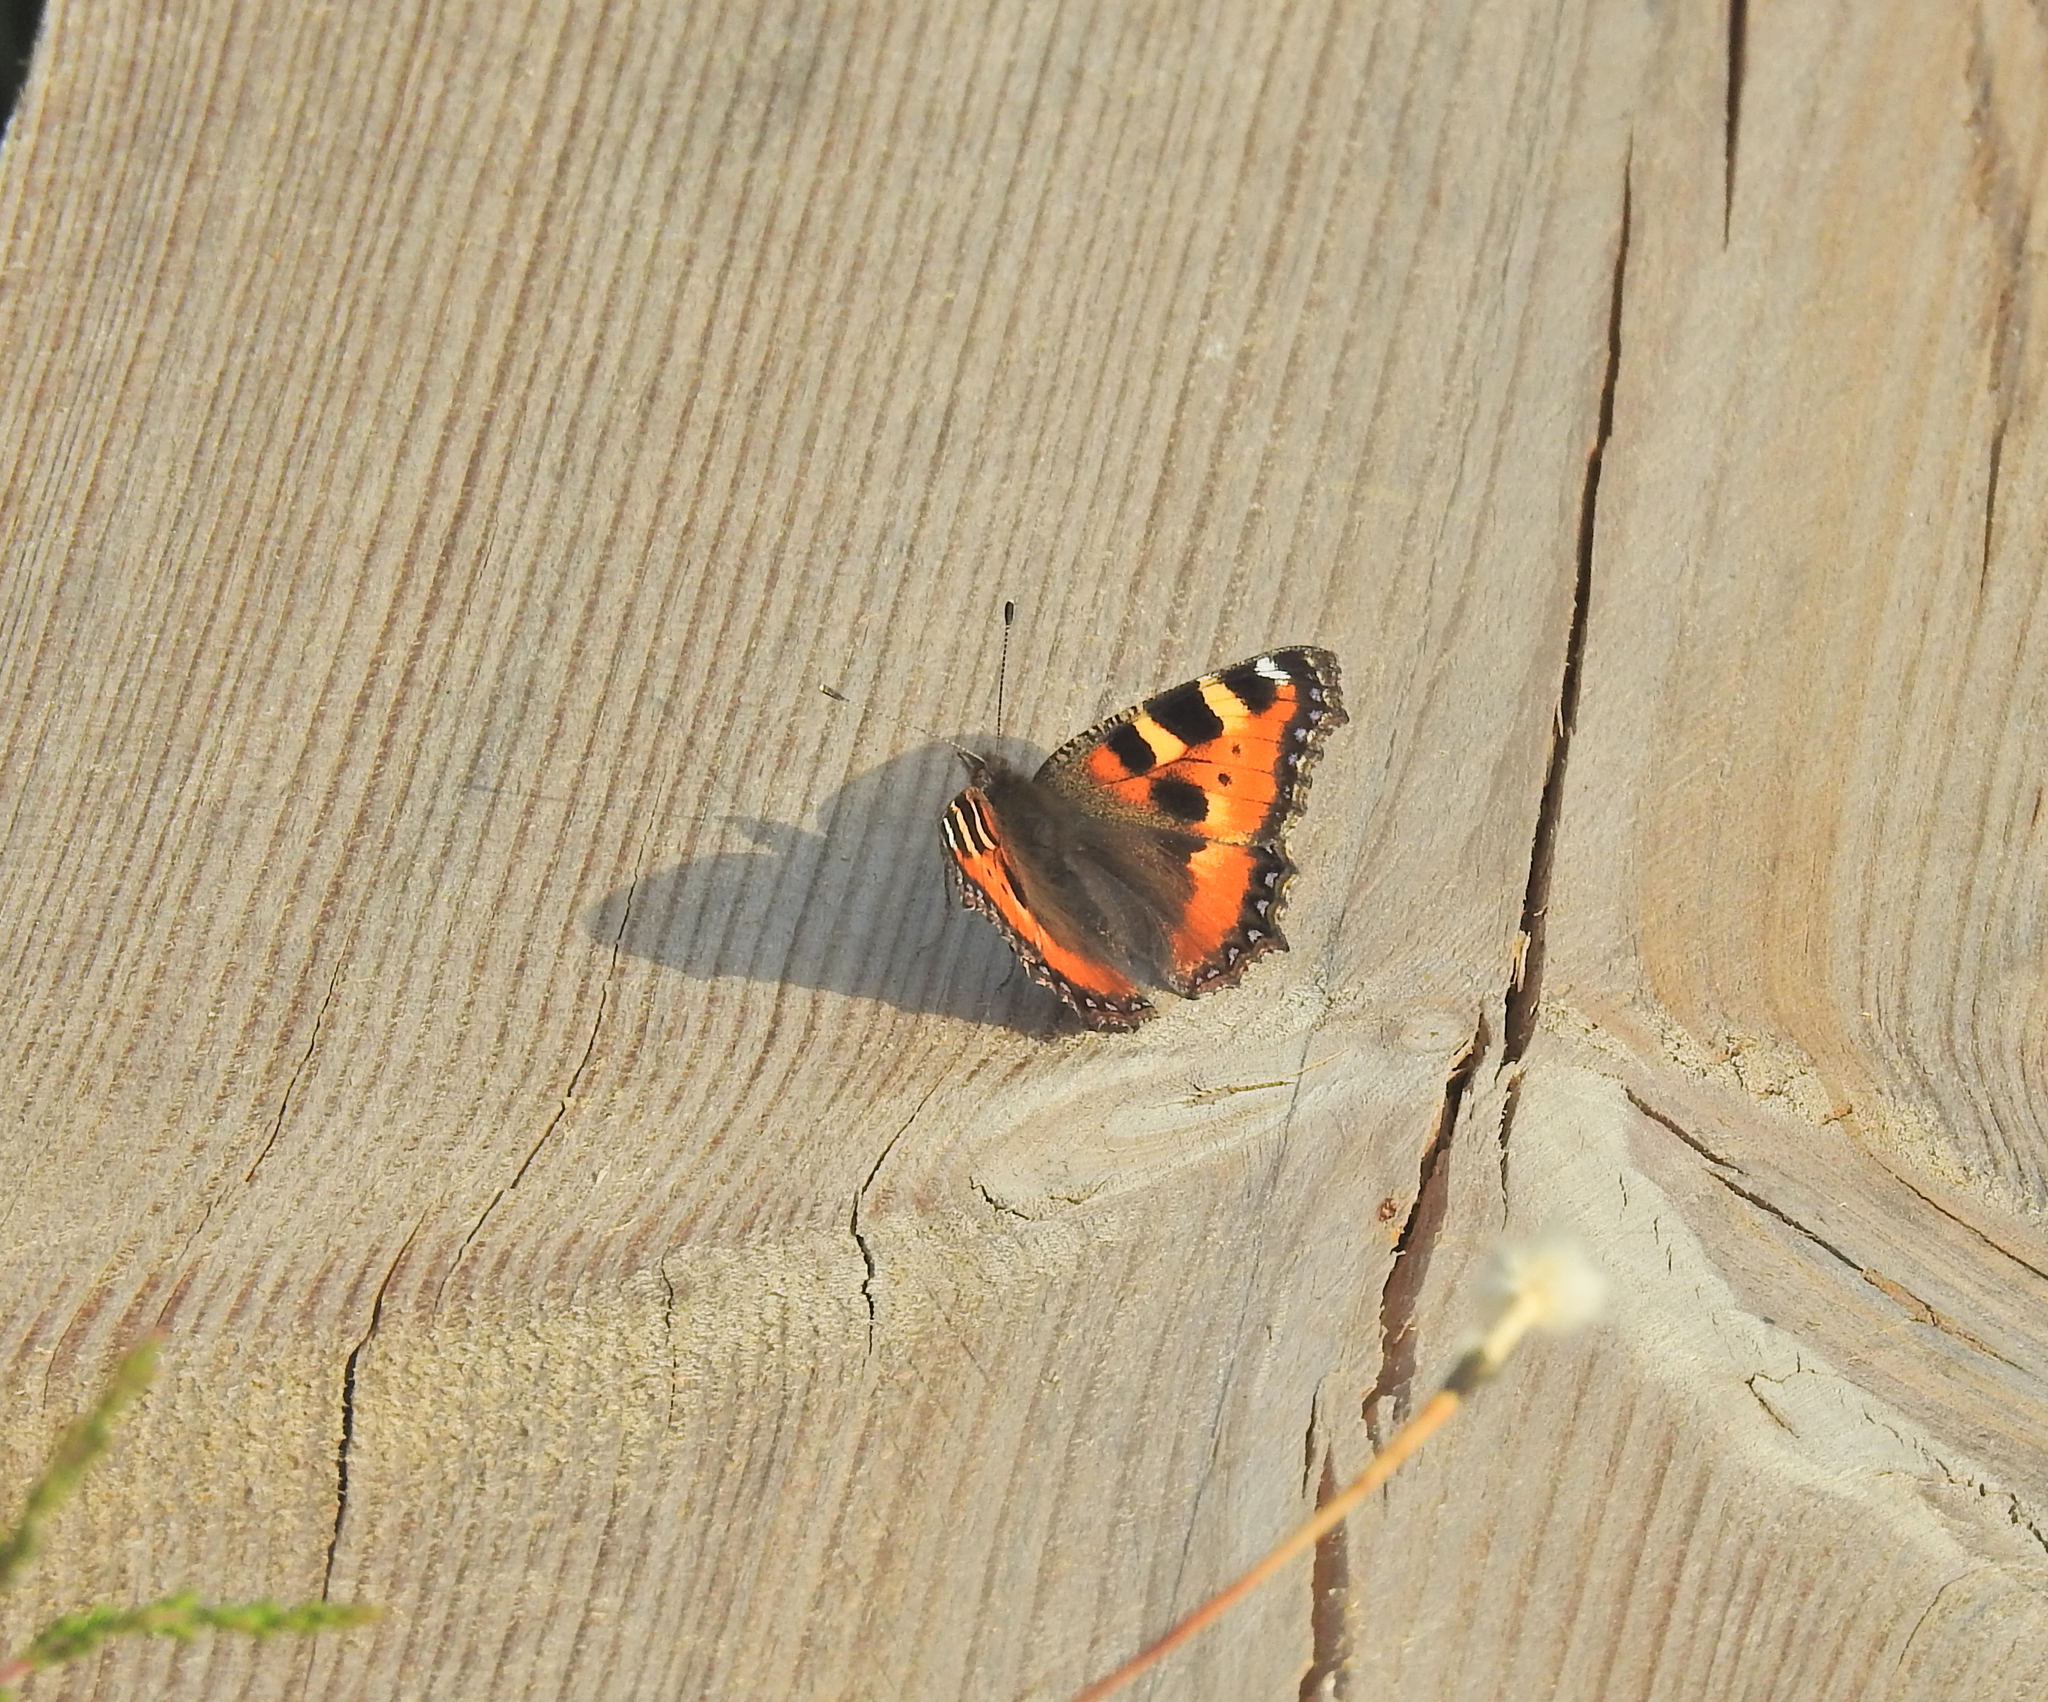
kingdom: Animalia
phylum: Arthropoda
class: Insecta
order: Lepidoptera
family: Nymphalidae
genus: Aglais
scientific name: Aglais urticae
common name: Small tortoiseshell
